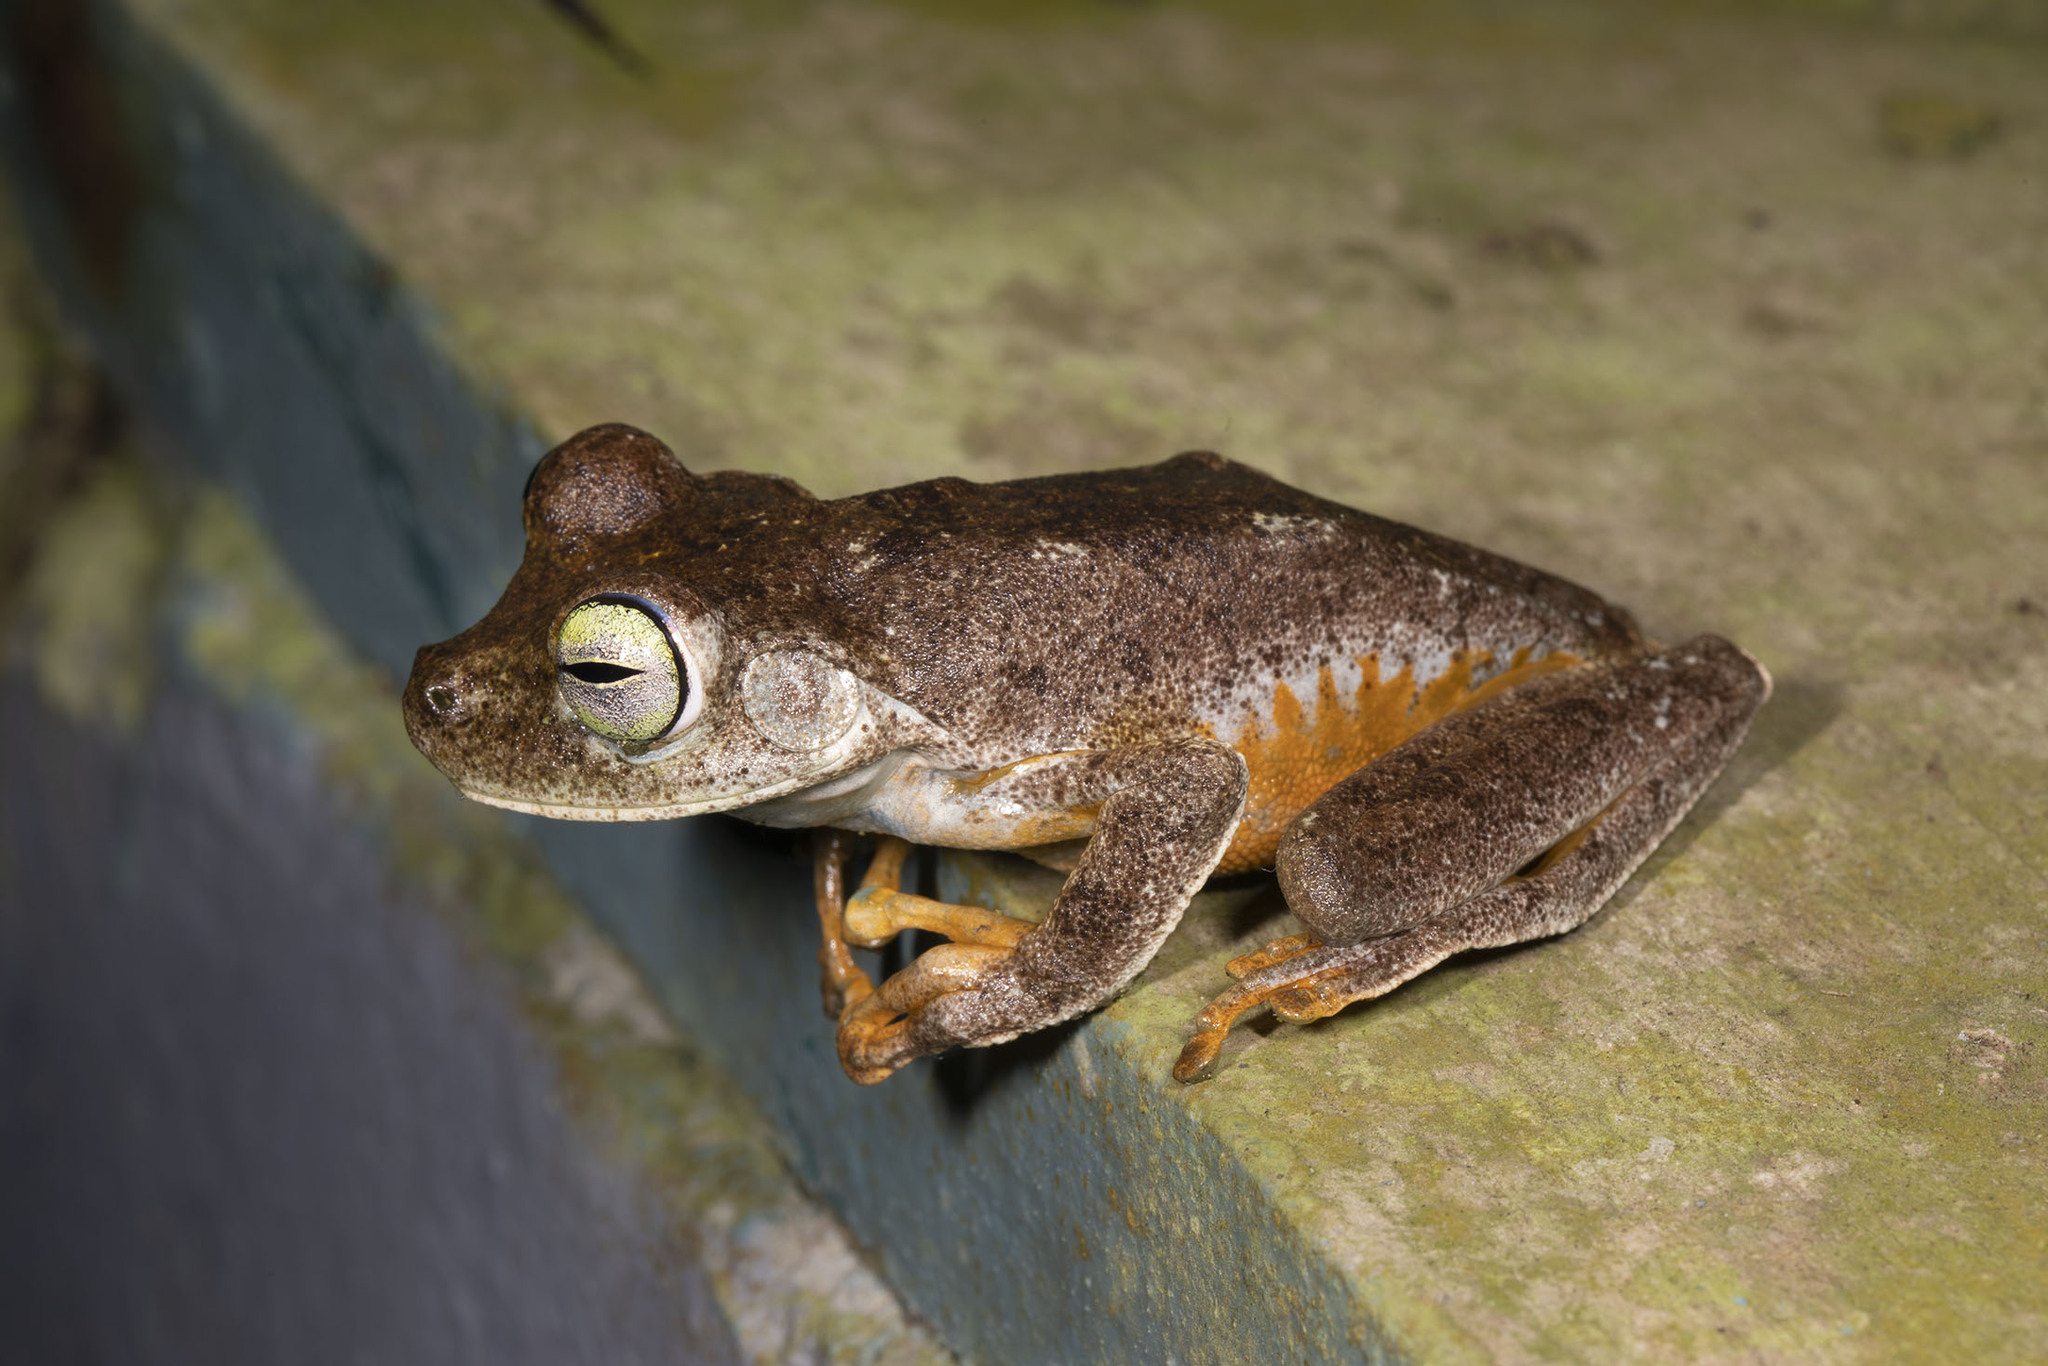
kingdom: Animalia
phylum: Chordata
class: Amphibia
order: Anura
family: Hylidae
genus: Boana
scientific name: Boana xerophylla
